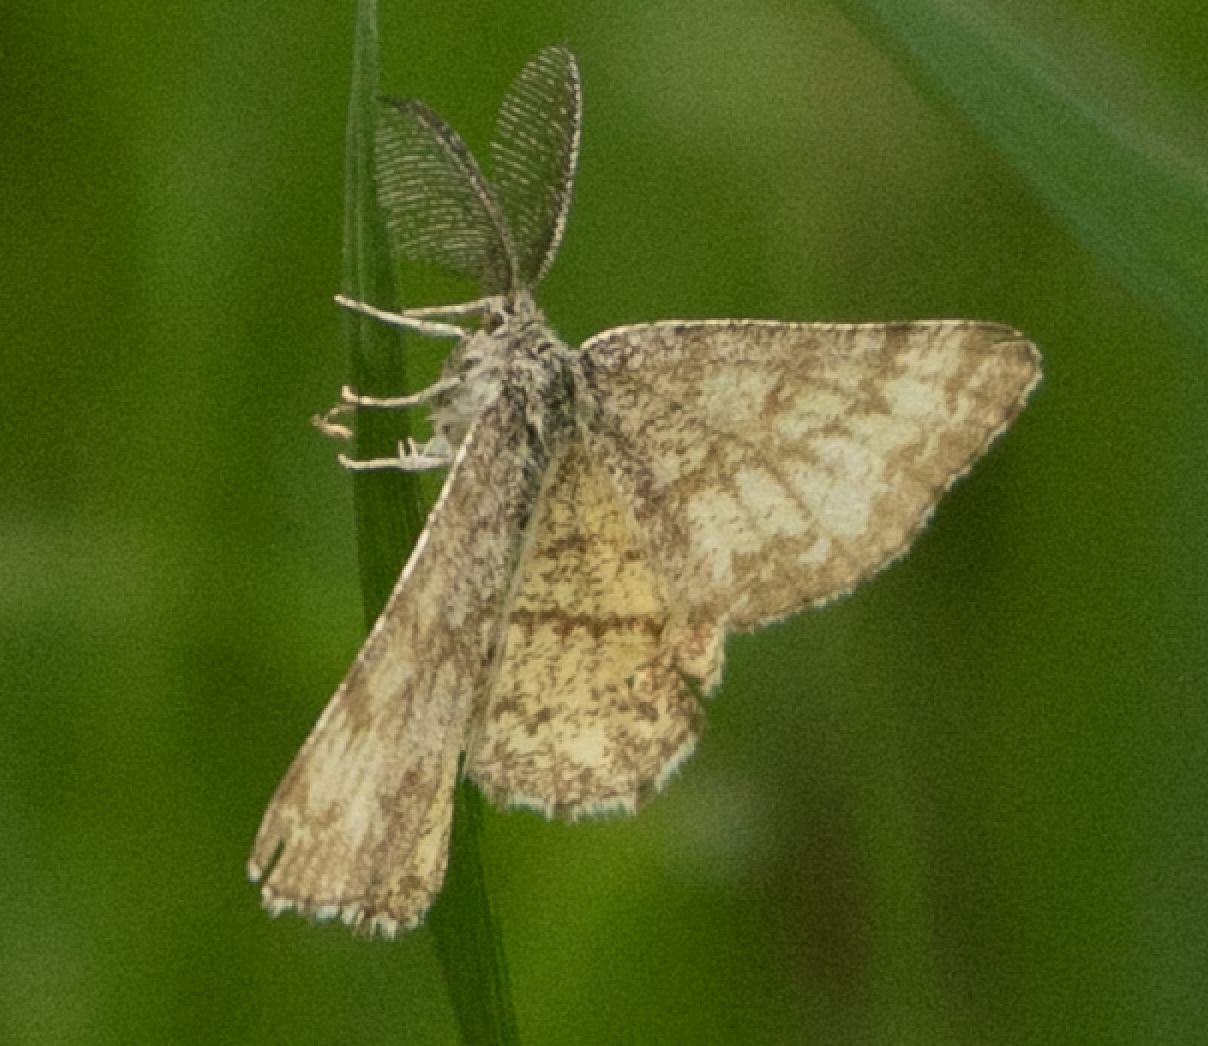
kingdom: Animalia
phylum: Arthropoda
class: Insecta
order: Lepidoptera
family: Geometridae
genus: Ematurga
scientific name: Ematurga atomaria
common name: Common heath
